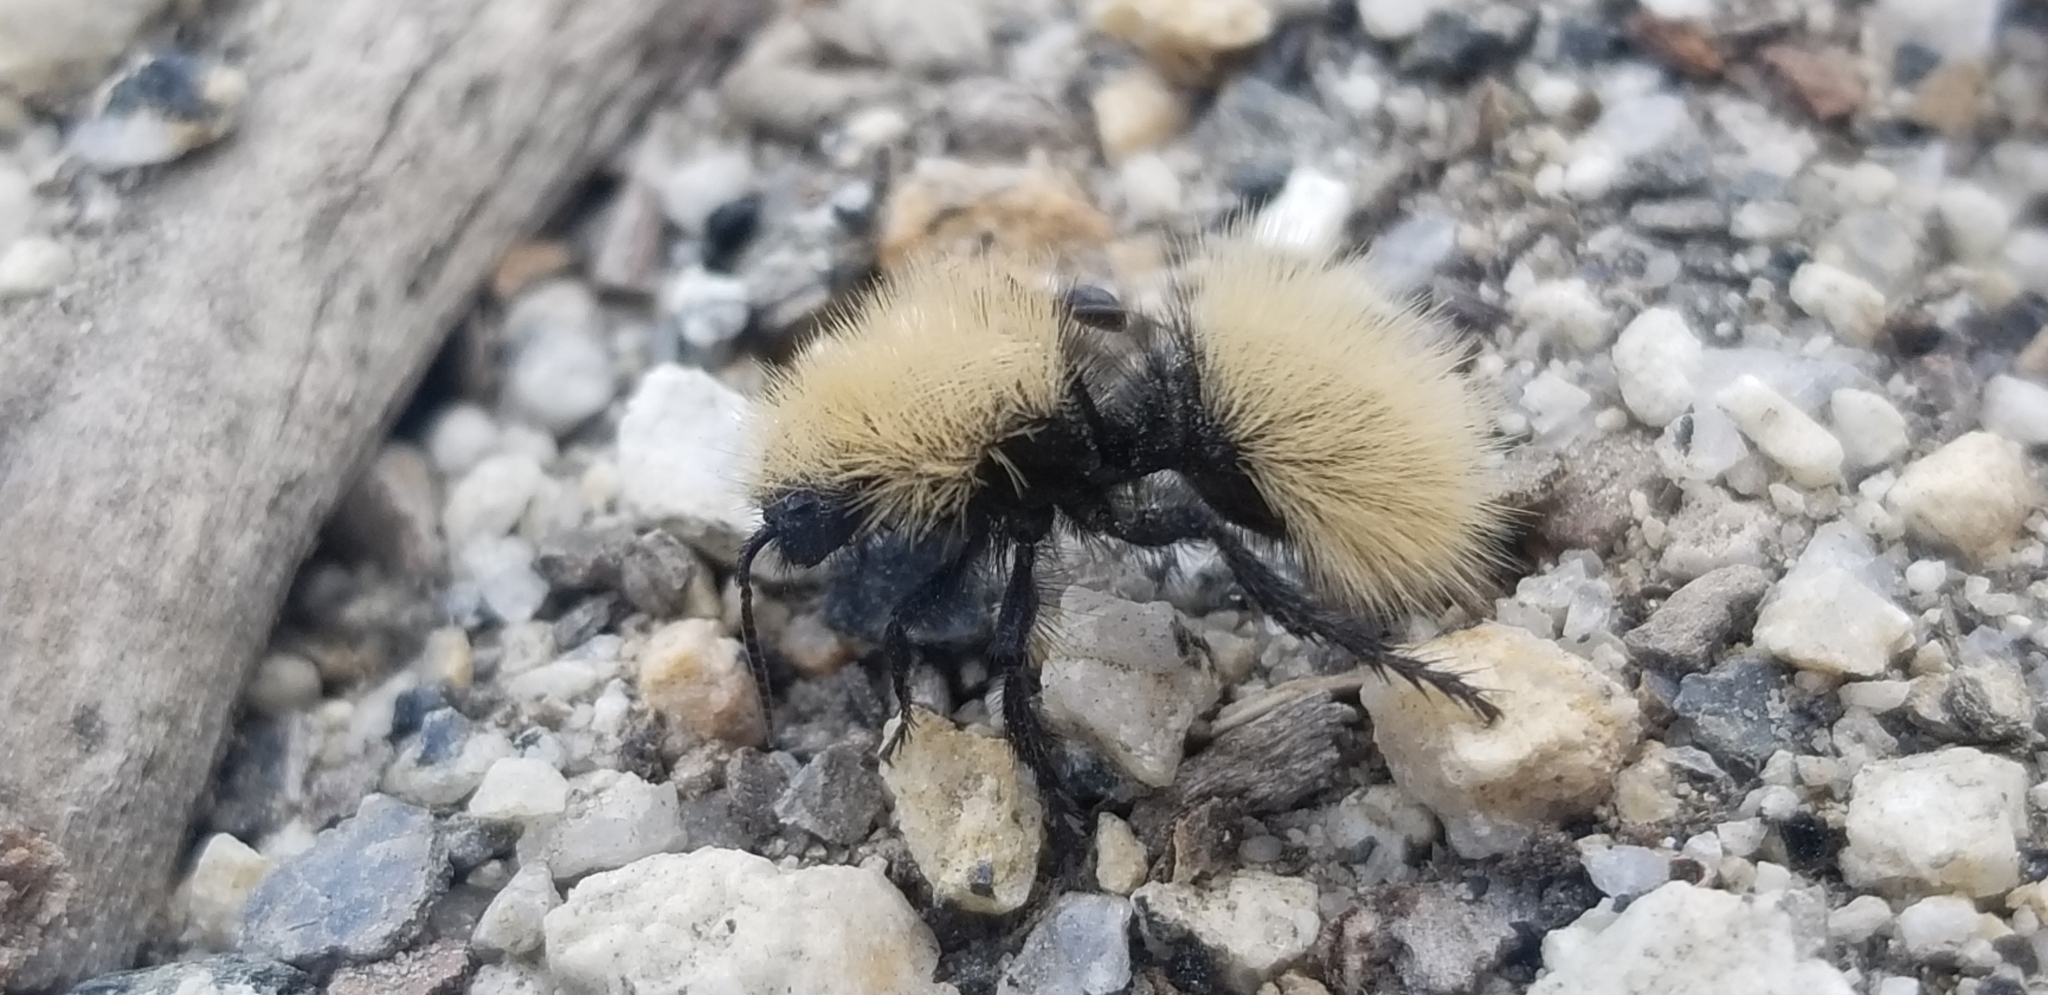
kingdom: Animalia
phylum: Arthropoda
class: Insecta
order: Hymenoptera
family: Mutillidae
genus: Dasymutilla
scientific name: Dasymutilla
